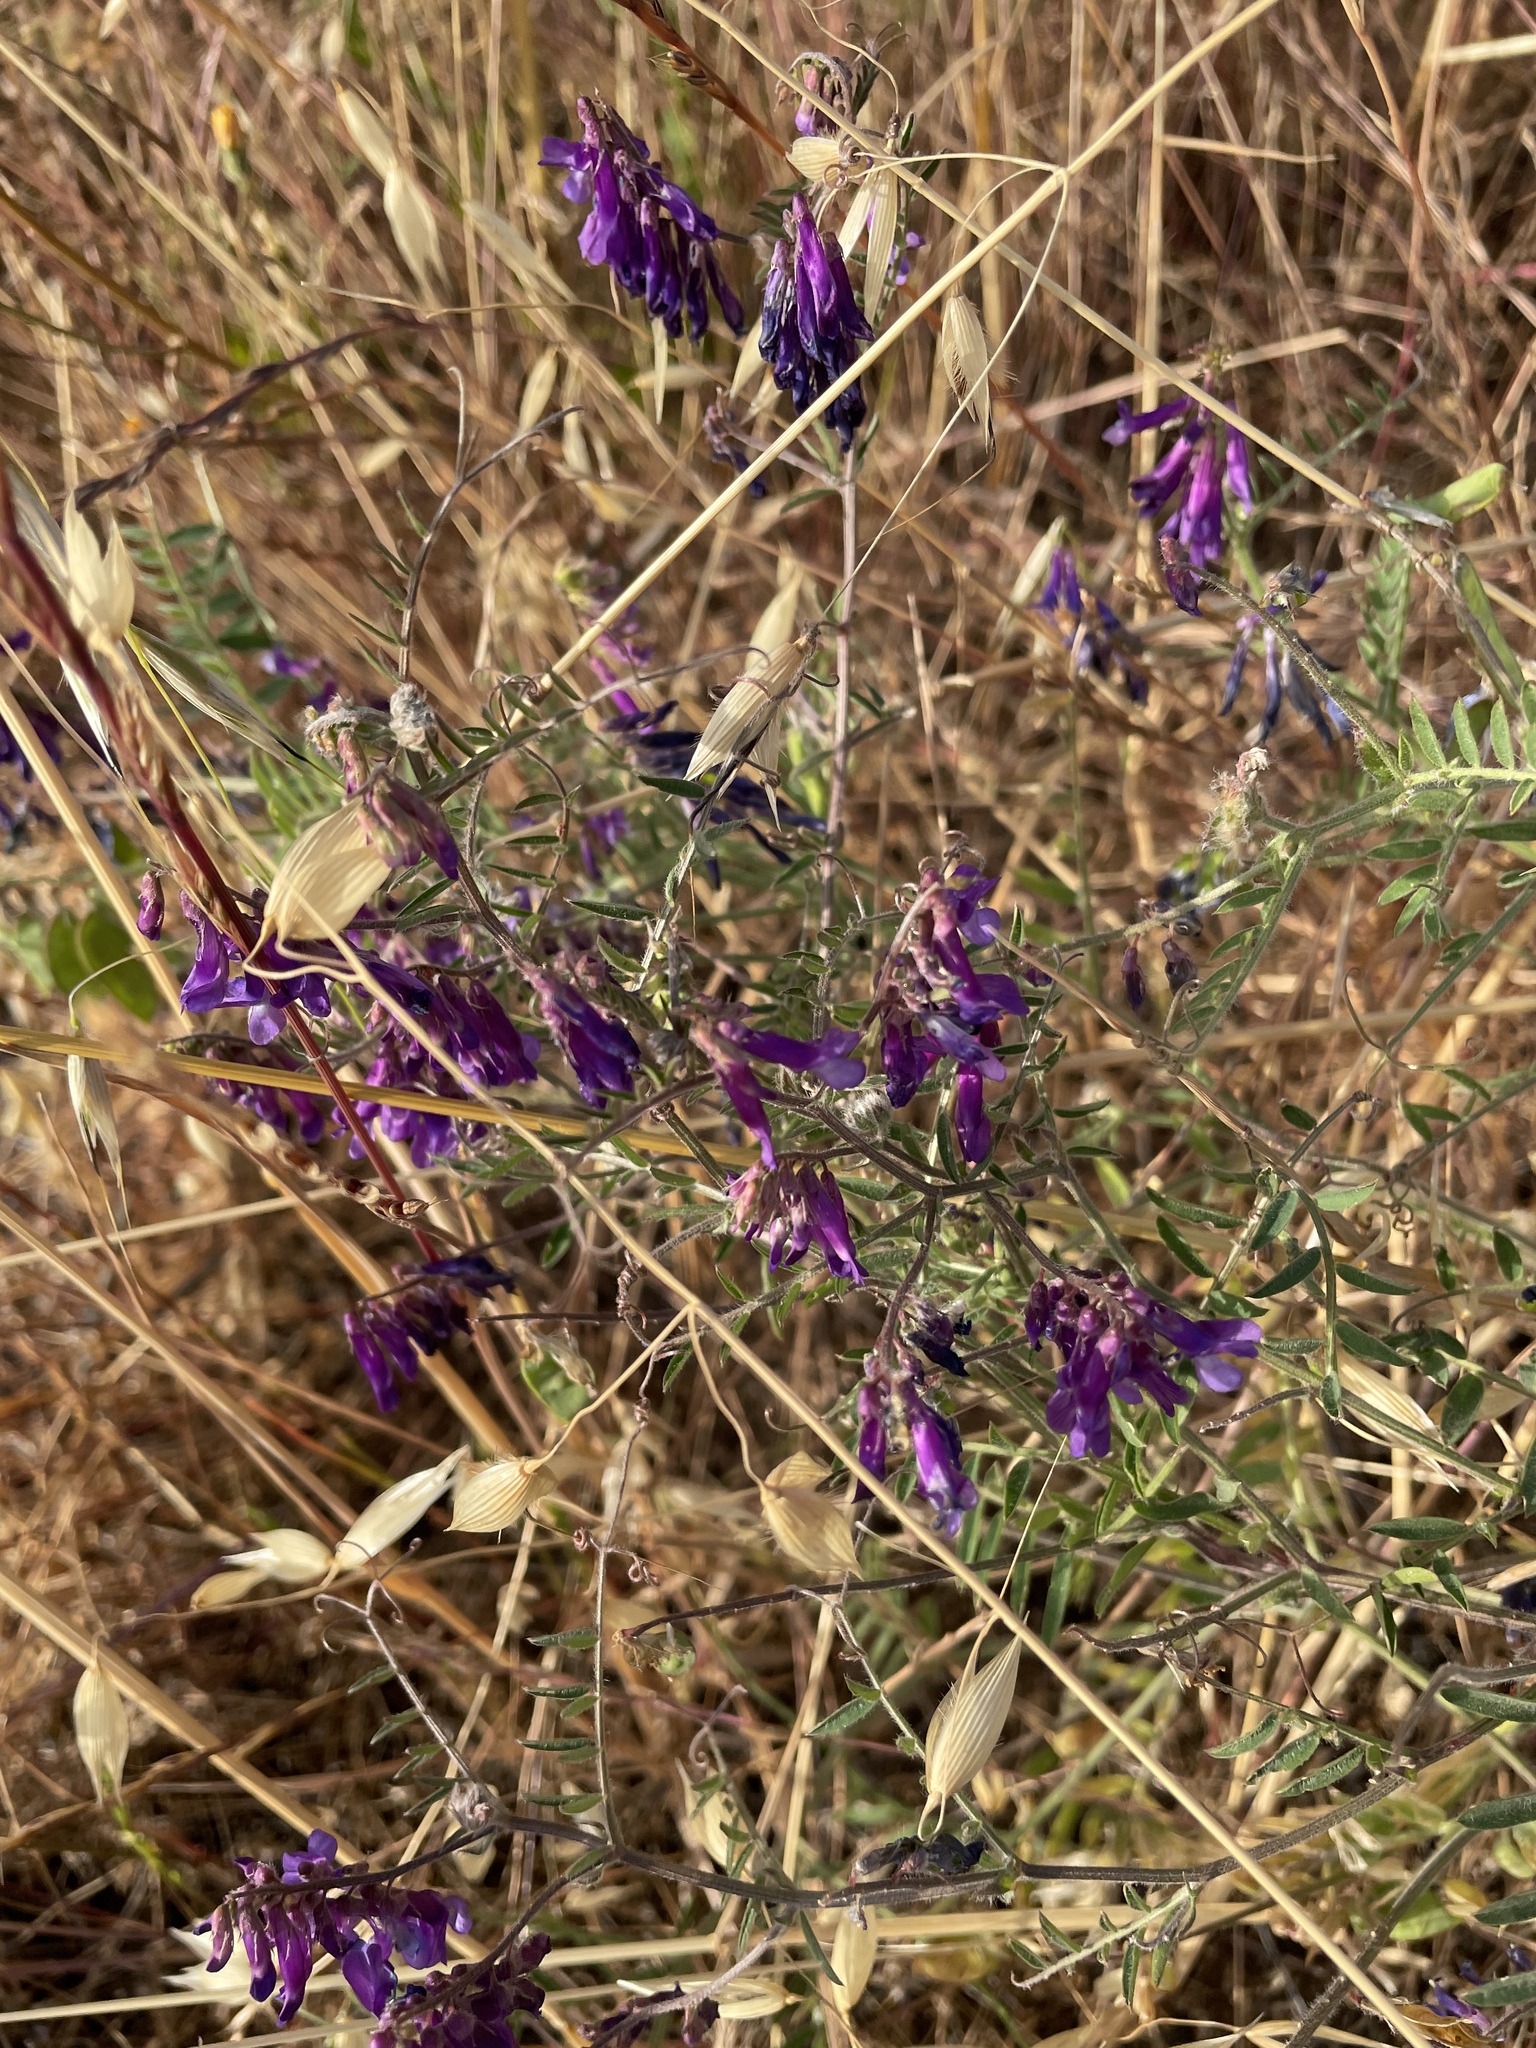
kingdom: Plantae
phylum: Tracheophyta
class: Magnoliopsida
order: Fabales
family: Fabaceae
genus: Vicia
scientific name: Vicia villosa
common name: Fodder vetch
